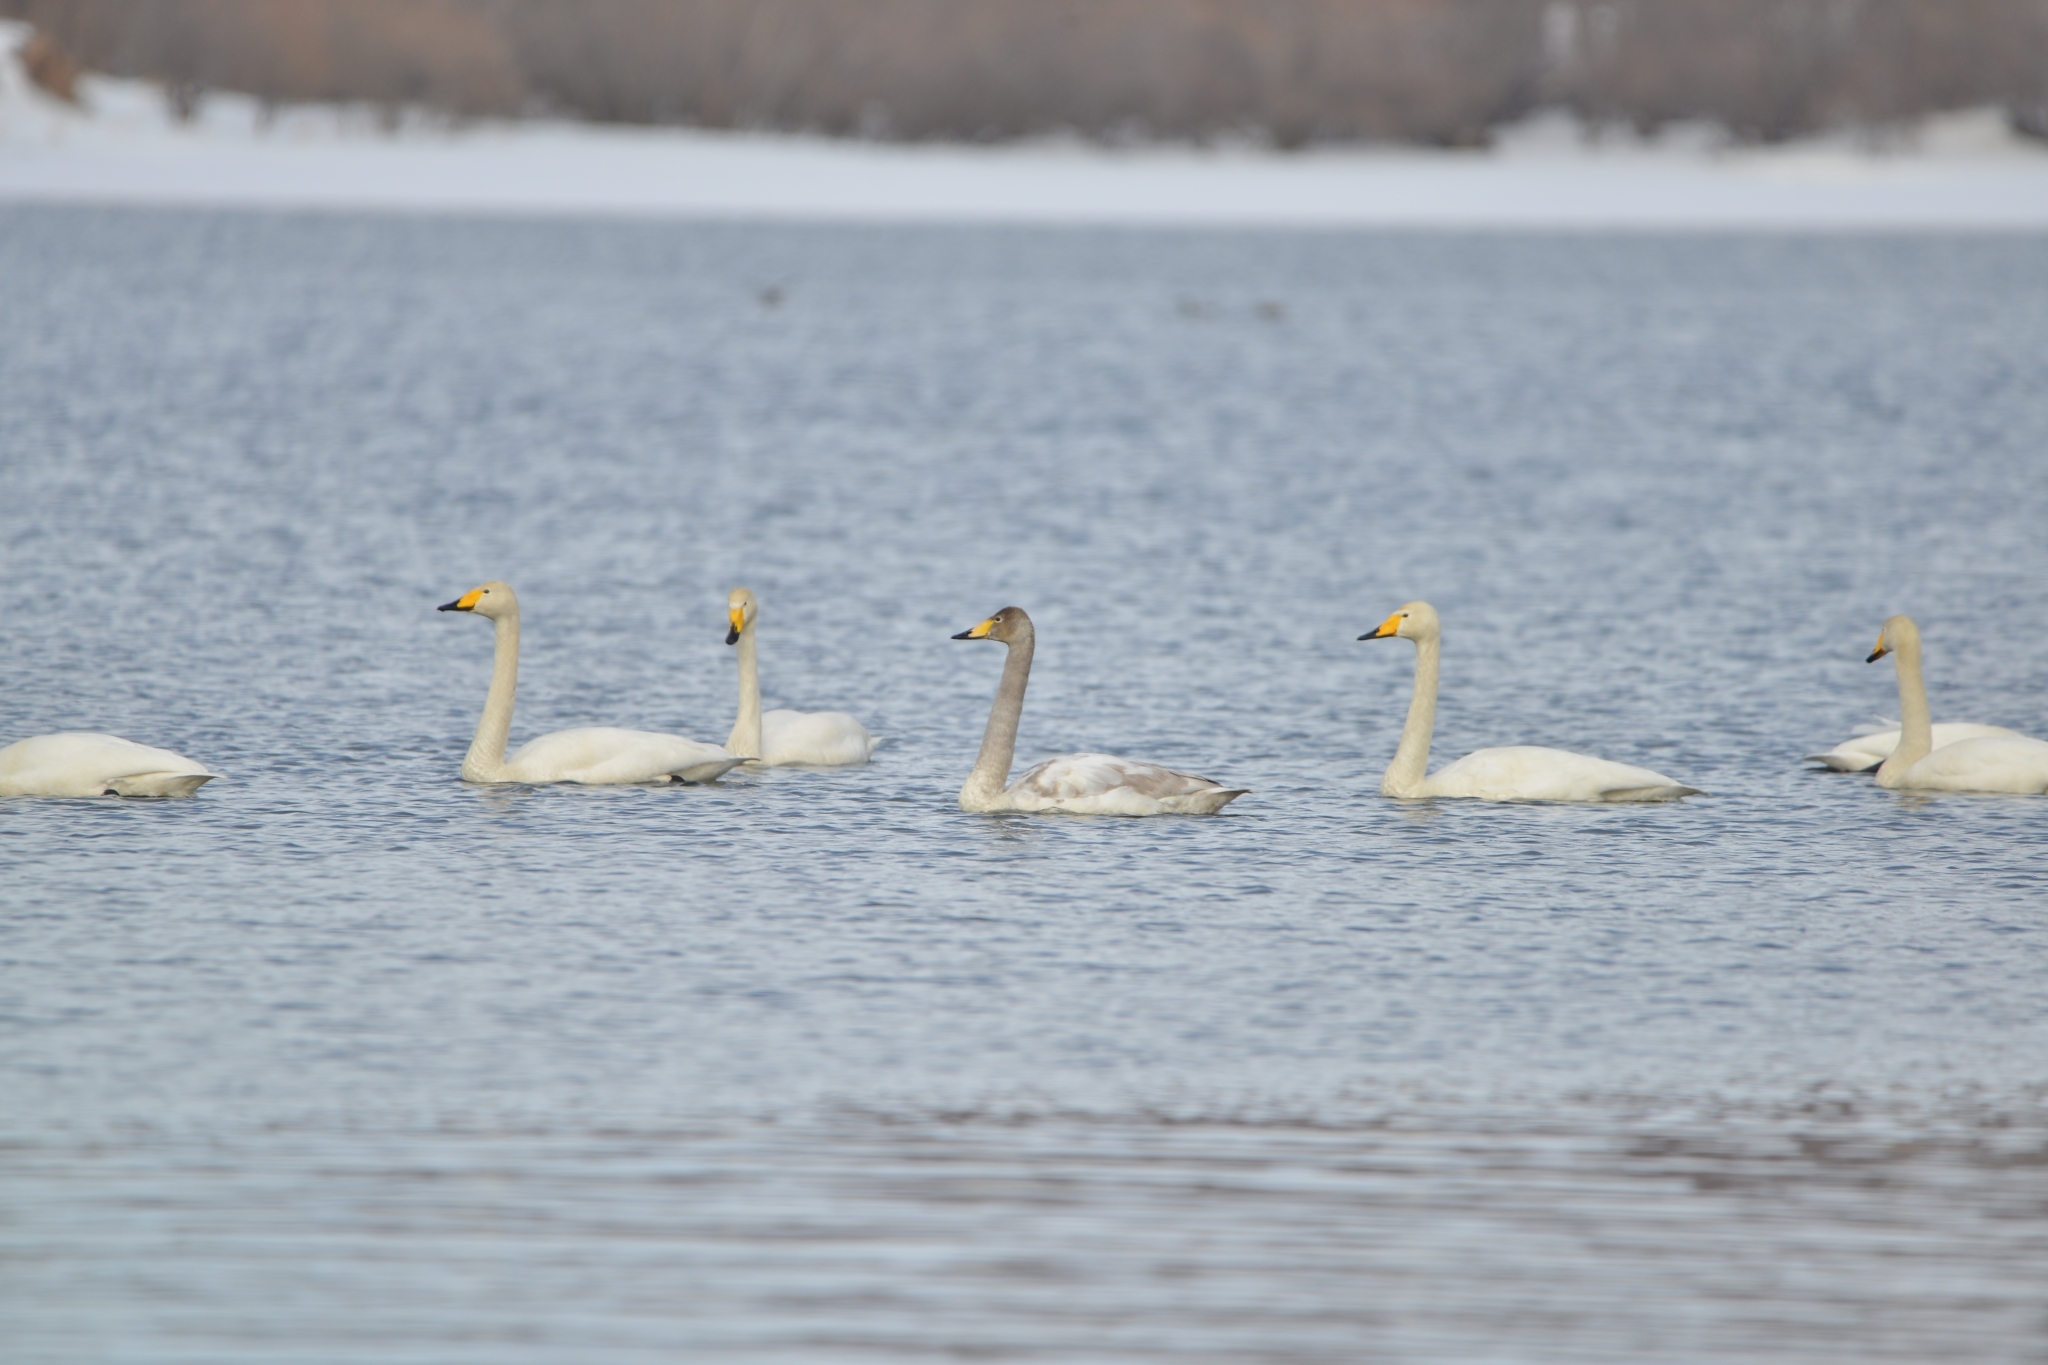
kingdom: Animalia
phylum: Chordata
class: Aves
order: Anseriformes
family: Anatidae
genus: Cygnus
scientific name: Cygnus cygnus
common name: Whooper swan
